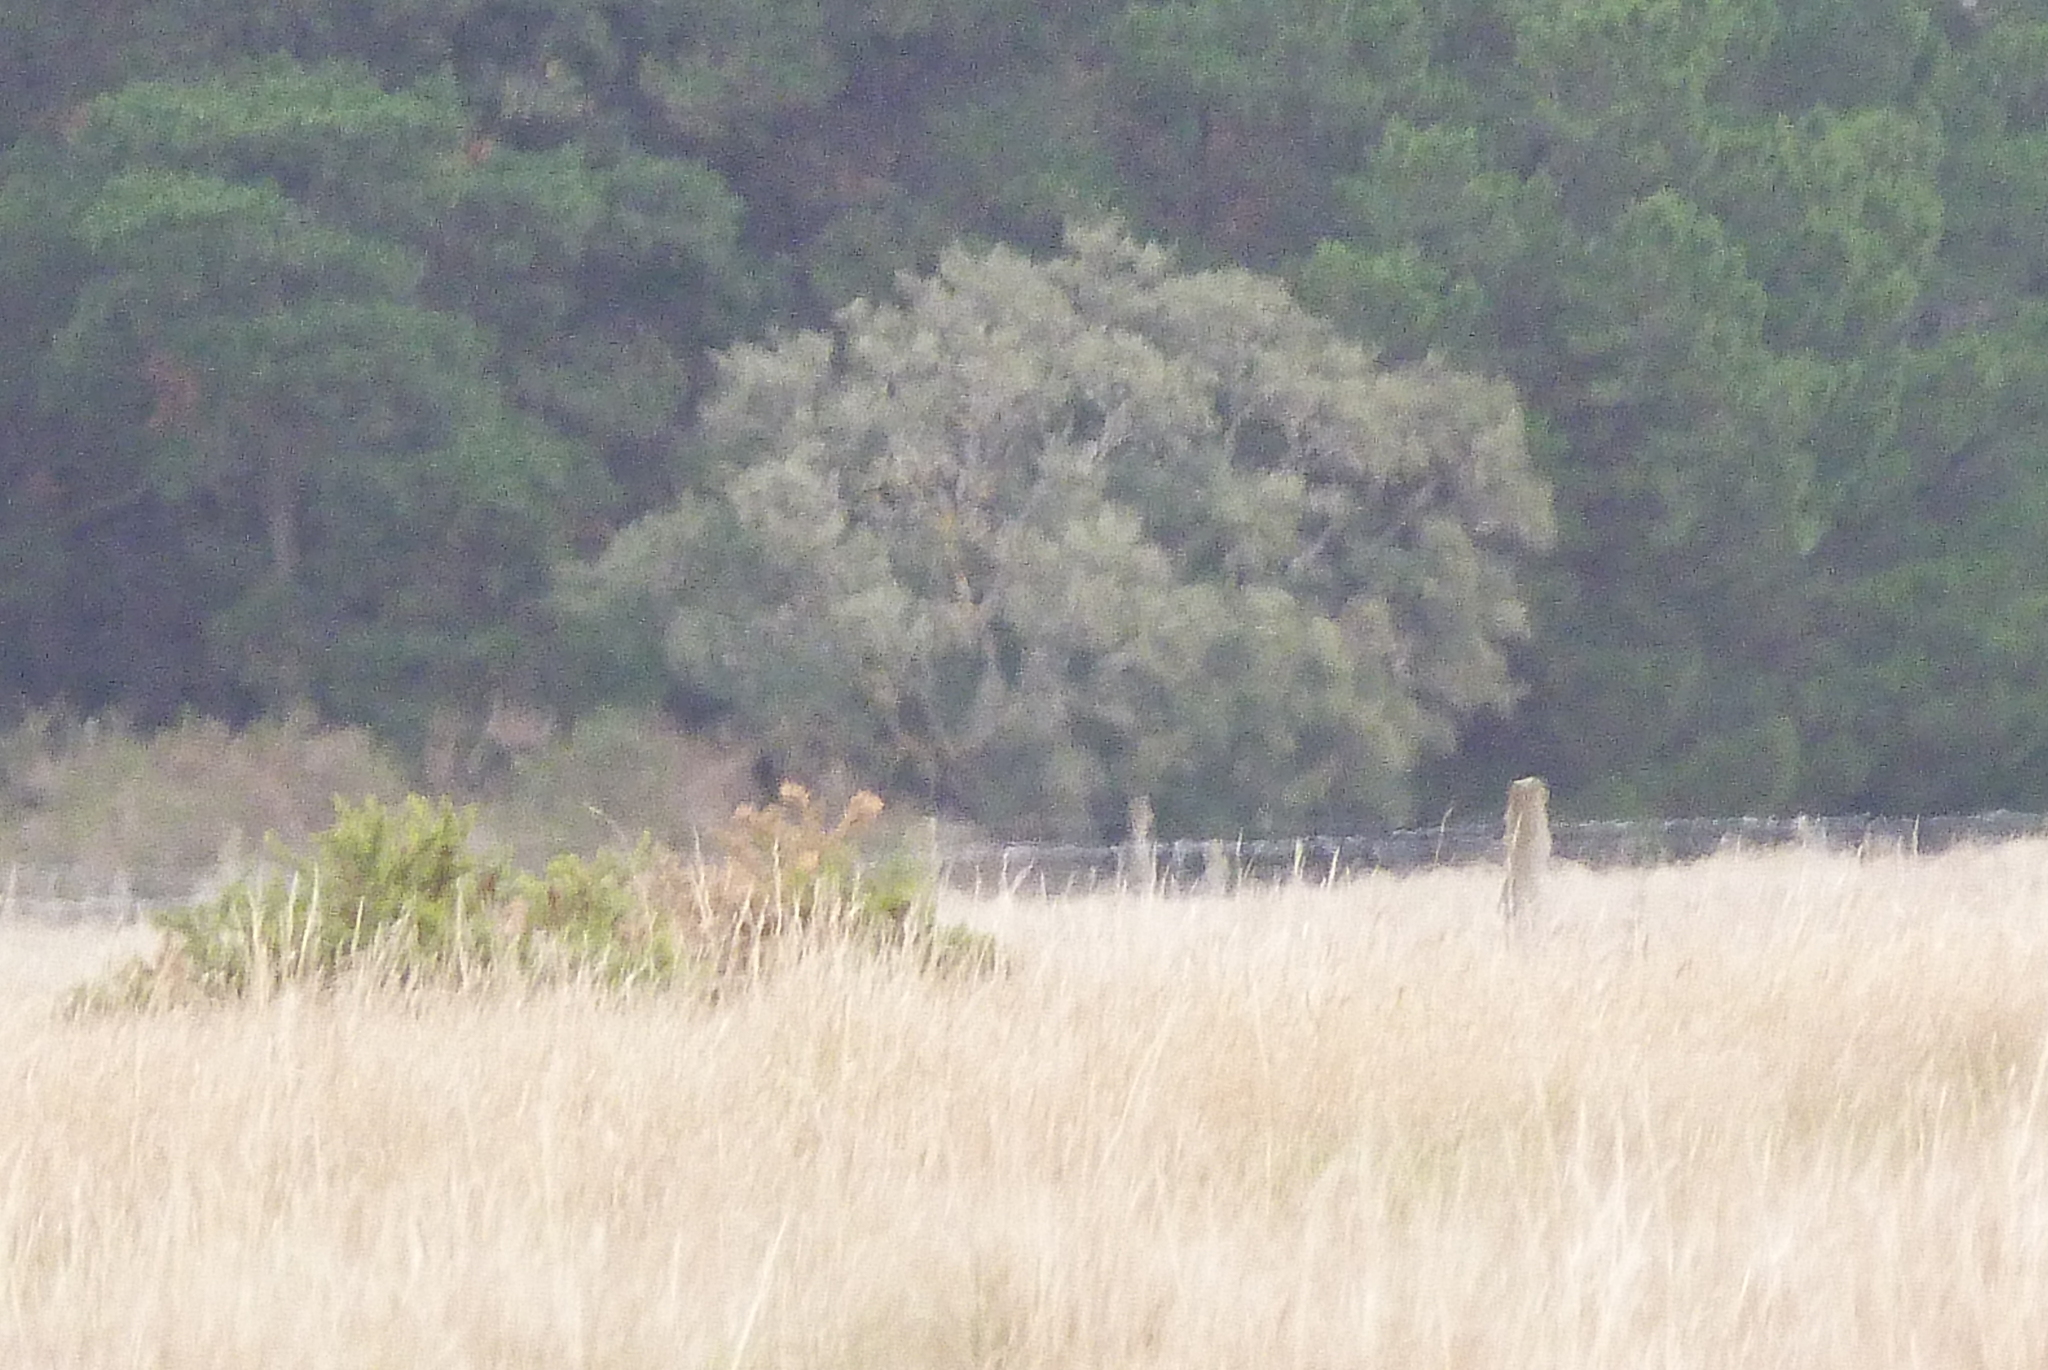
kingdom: Plantae
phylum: Tracheophyta
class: Magnoliopsida
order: Fabales
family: Fabaceae
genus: Sophora
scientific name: Sophora microphylla
